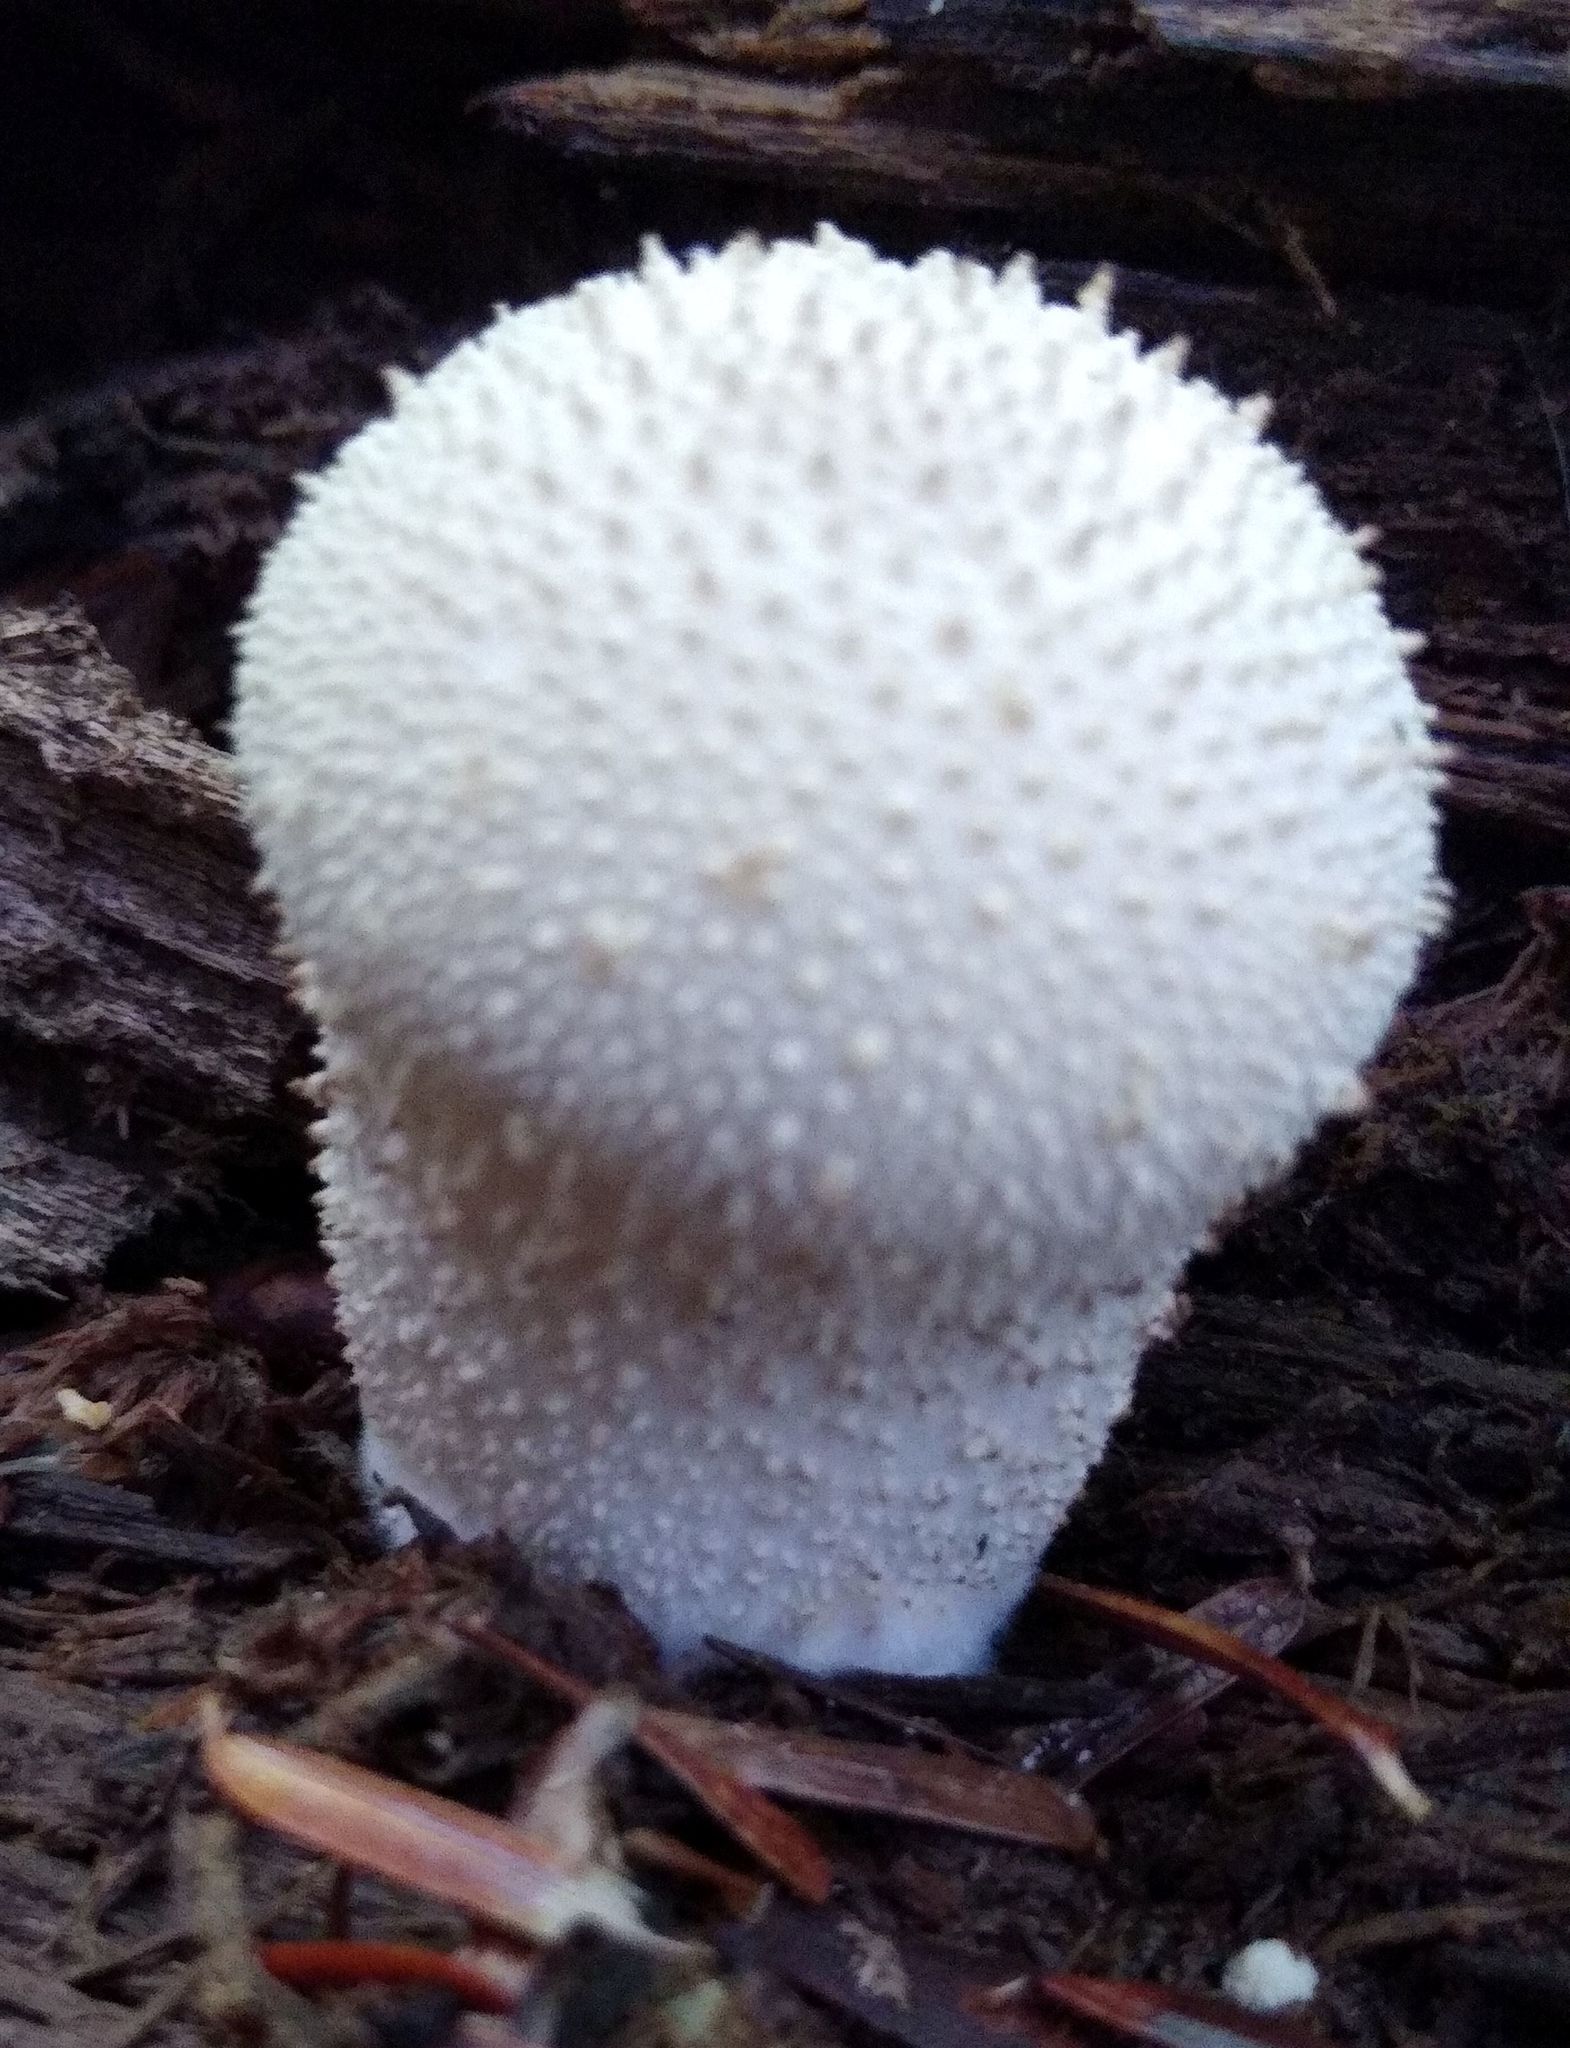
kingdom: Fungi
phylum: Basidiomycota
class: Agaricomycetes
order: Agaricales
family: Lycoperdaceae
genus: Lycoperdon
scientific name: Lycoperdon perlatum
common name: Common puffball
